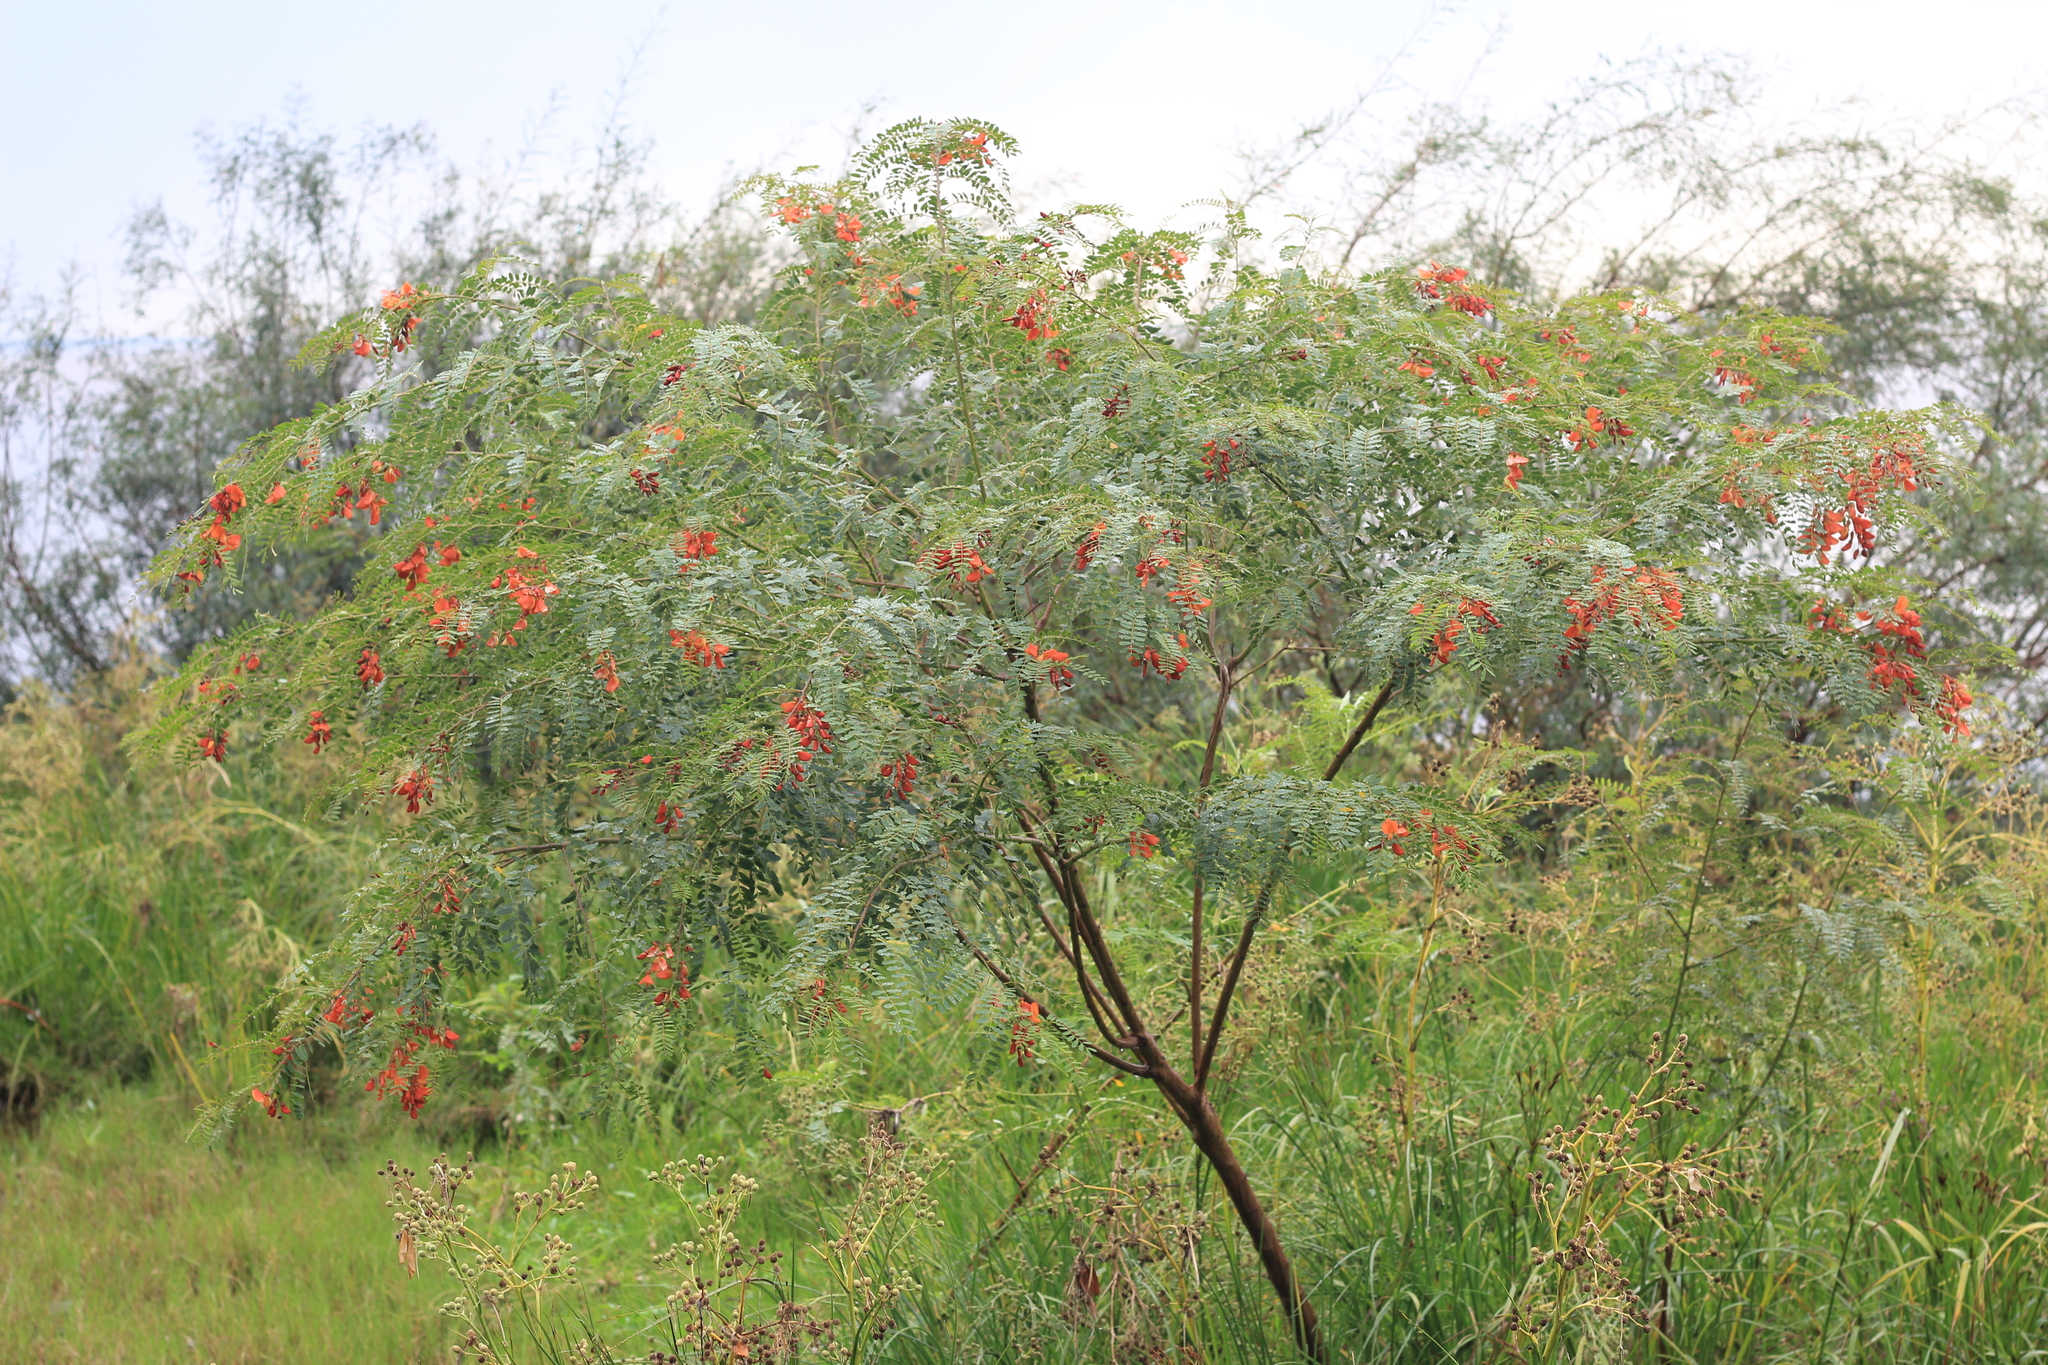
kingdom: Plantae
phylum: Tracheophyta
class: Magnoliopsida
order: Fabales
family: Fabaceae
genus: Sesbania
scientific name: Sesbania punicea
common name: Rattlebox
